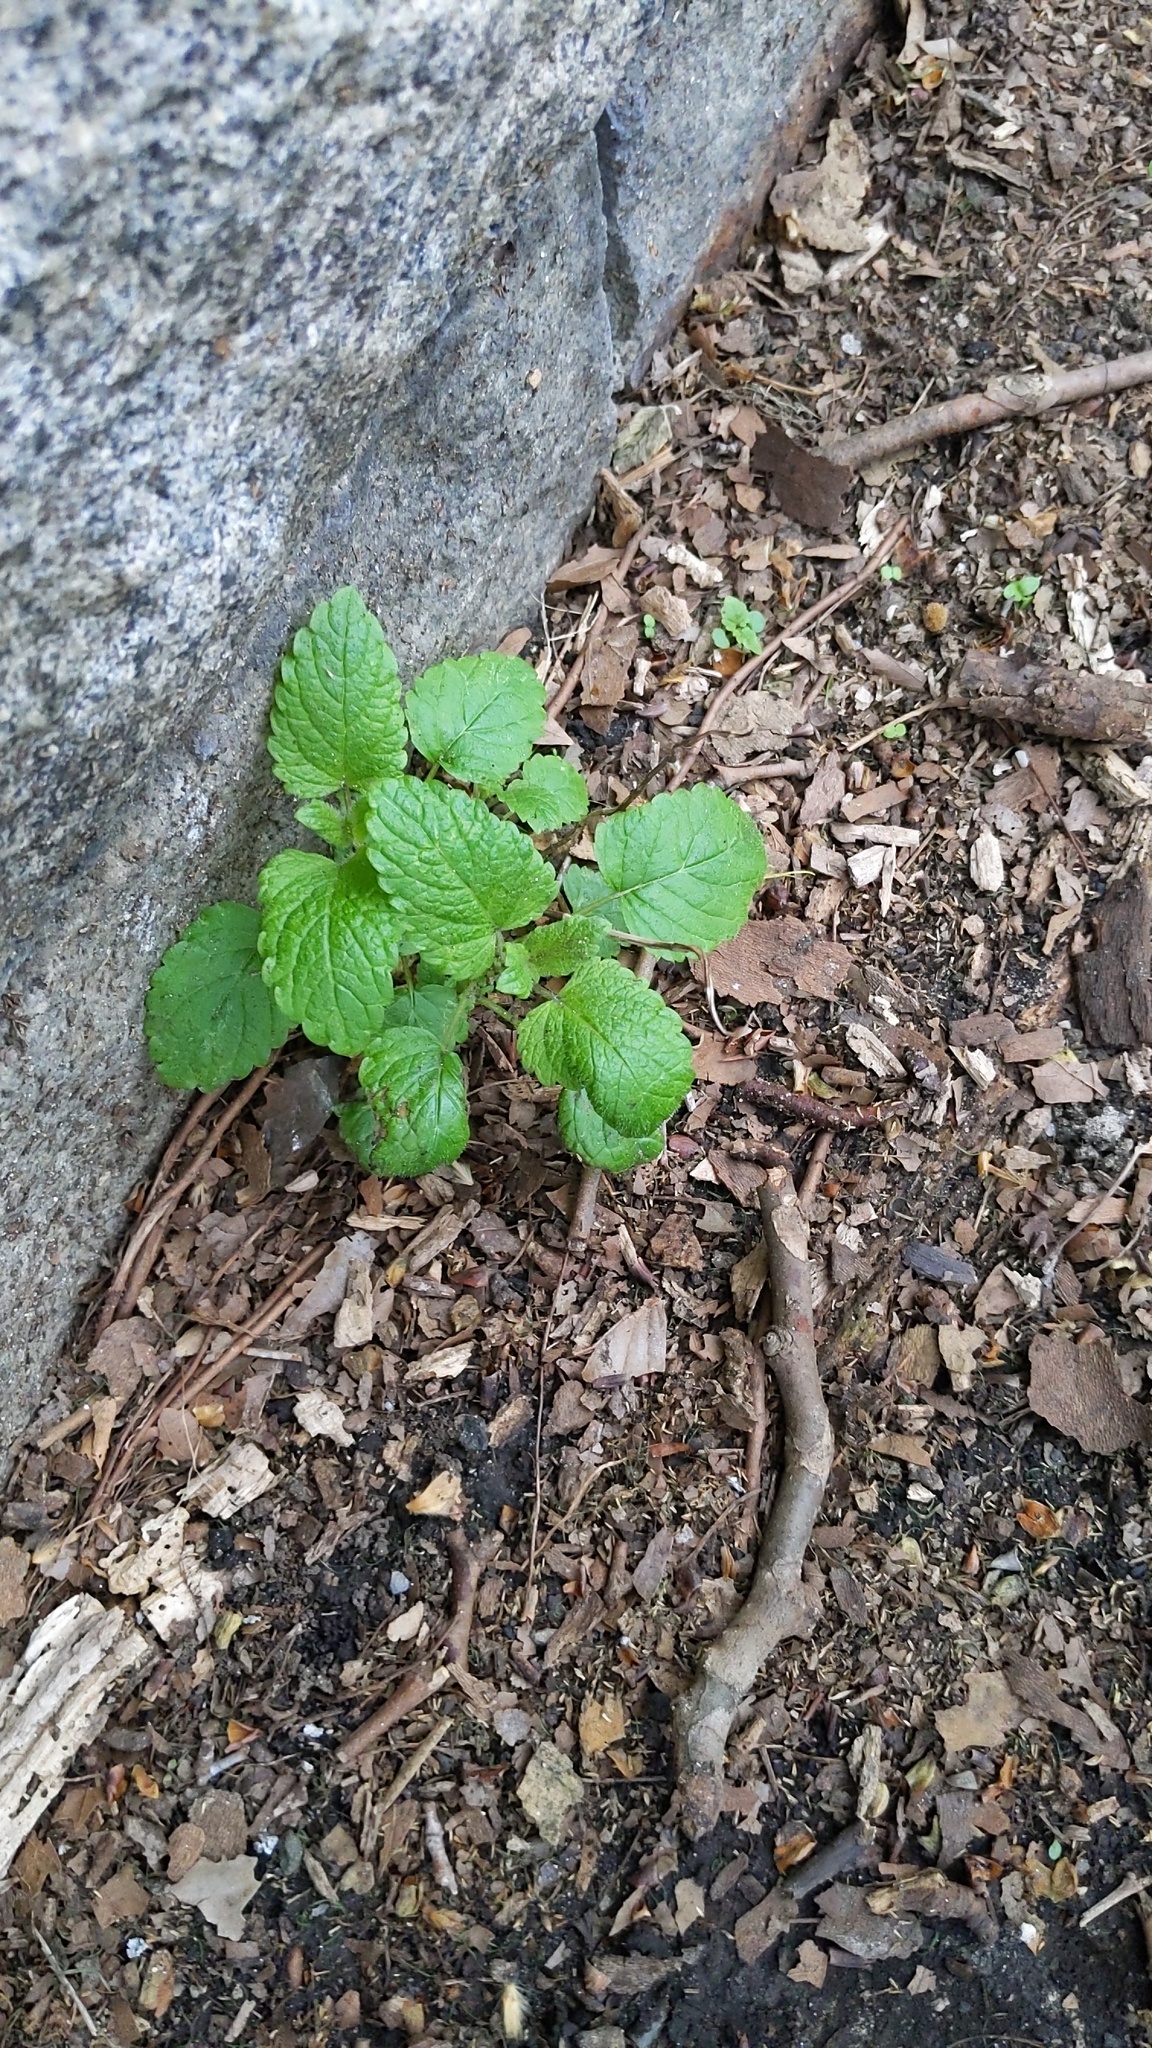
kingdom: Plantae
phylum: Tracheophyta
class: Magnoliopsida
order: Lamiales
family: Lamiaceae
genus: Melissa
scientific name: Melissa officinalis
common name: Balm
